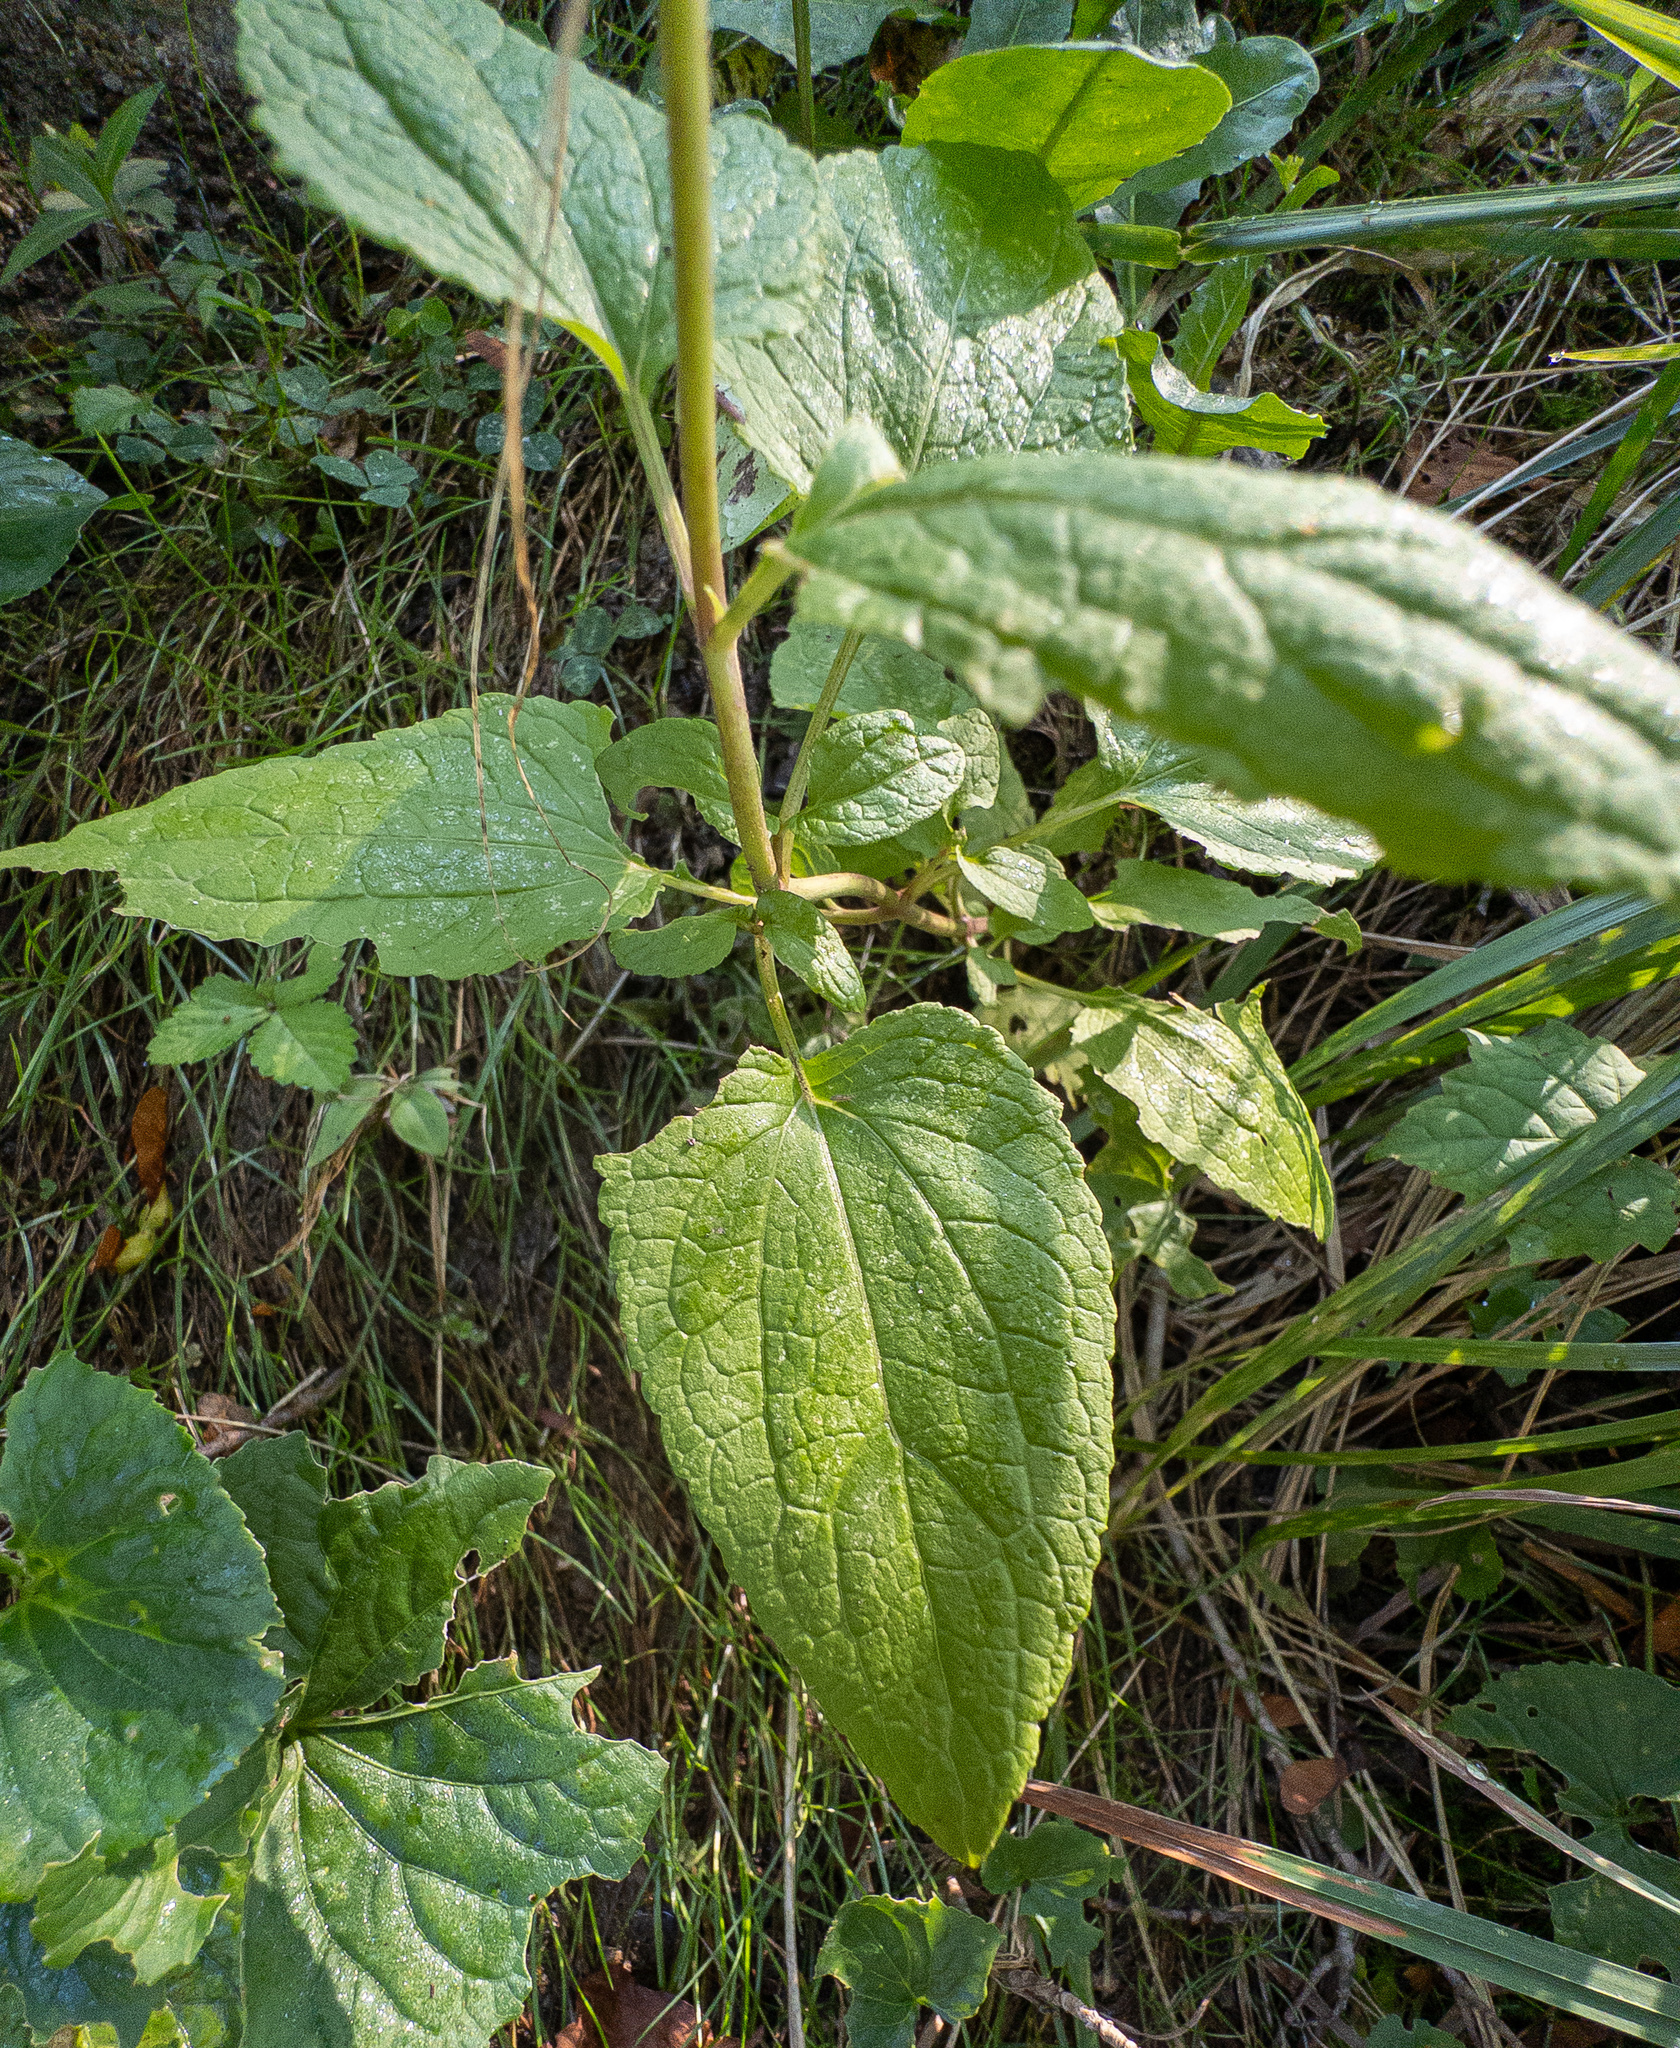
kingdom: Plantae
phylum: Tracheophyta
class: Magnoliopsida
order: Asterales
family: Asteraceae
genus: Conoclinium
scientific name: Conoclinium coelestinum
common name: Blue mistflower
